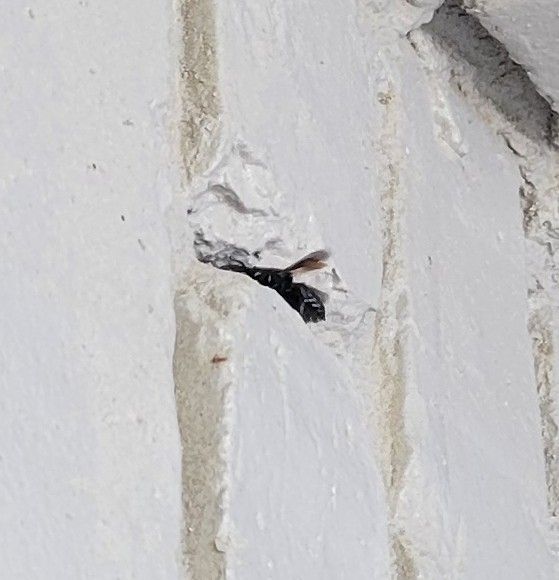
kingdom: Animalia
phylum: Arthropoda
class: Insecta
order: Hymenoptera
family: Megachilidae
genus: Megachile
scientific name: Megachile xylocopoides
